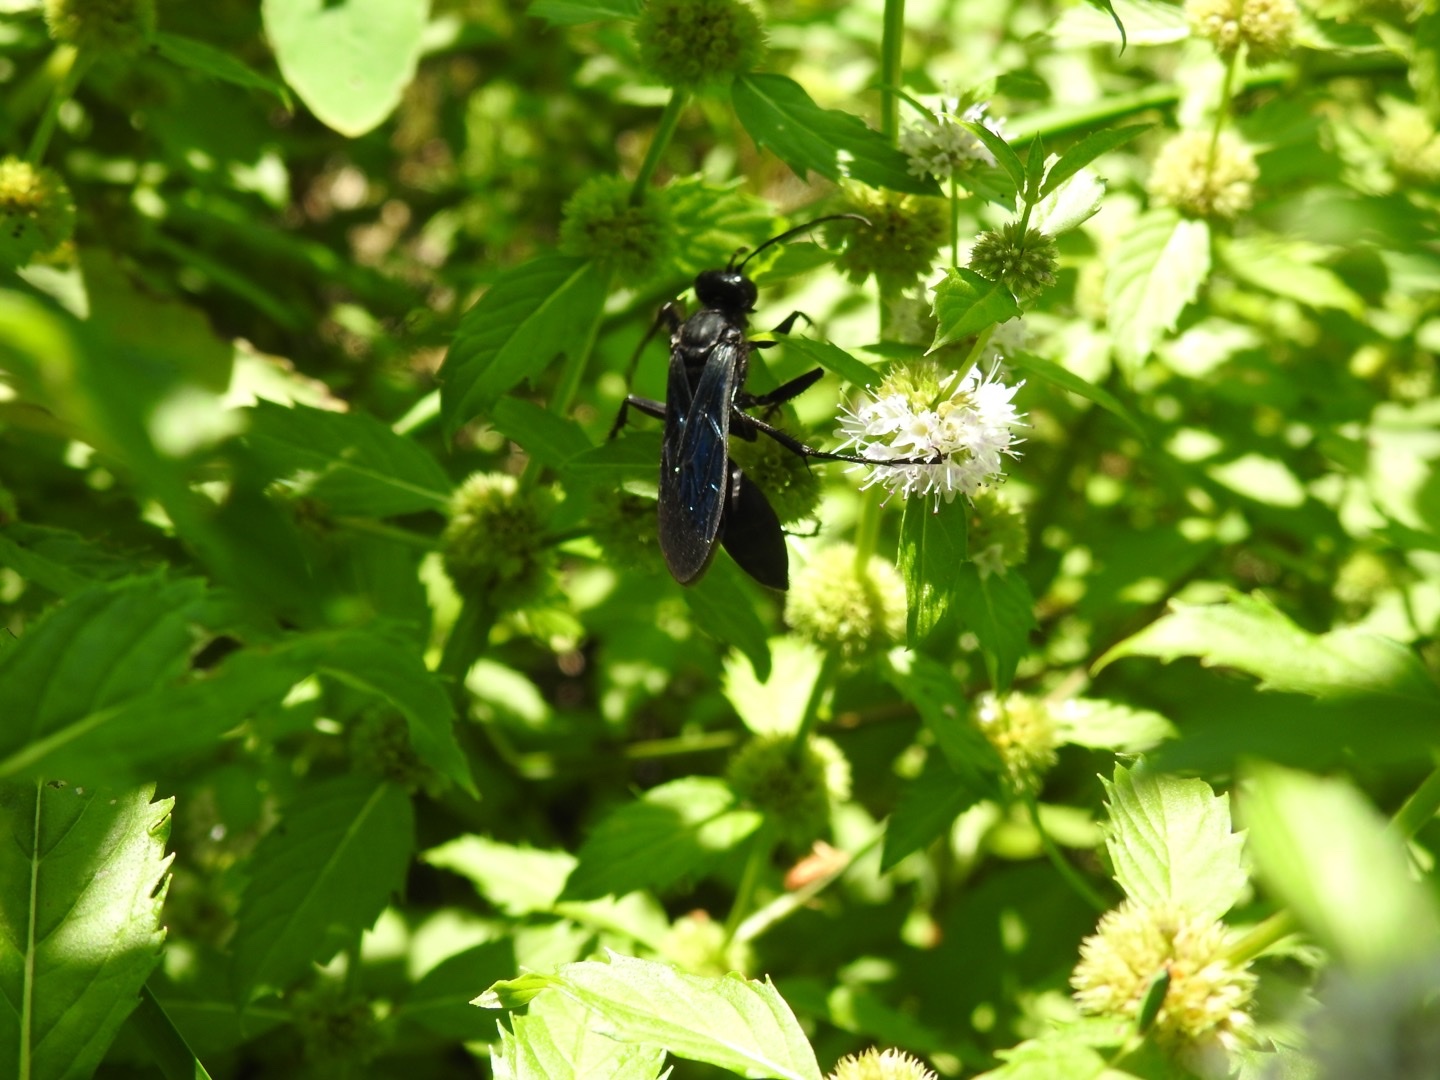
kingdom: Animalia
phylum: Arthropoda
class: Insecta
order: Hymenoptera
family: Sphecidae
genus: Sphex
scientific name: Sphex pensylvanicus
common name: Great black digger wasp
